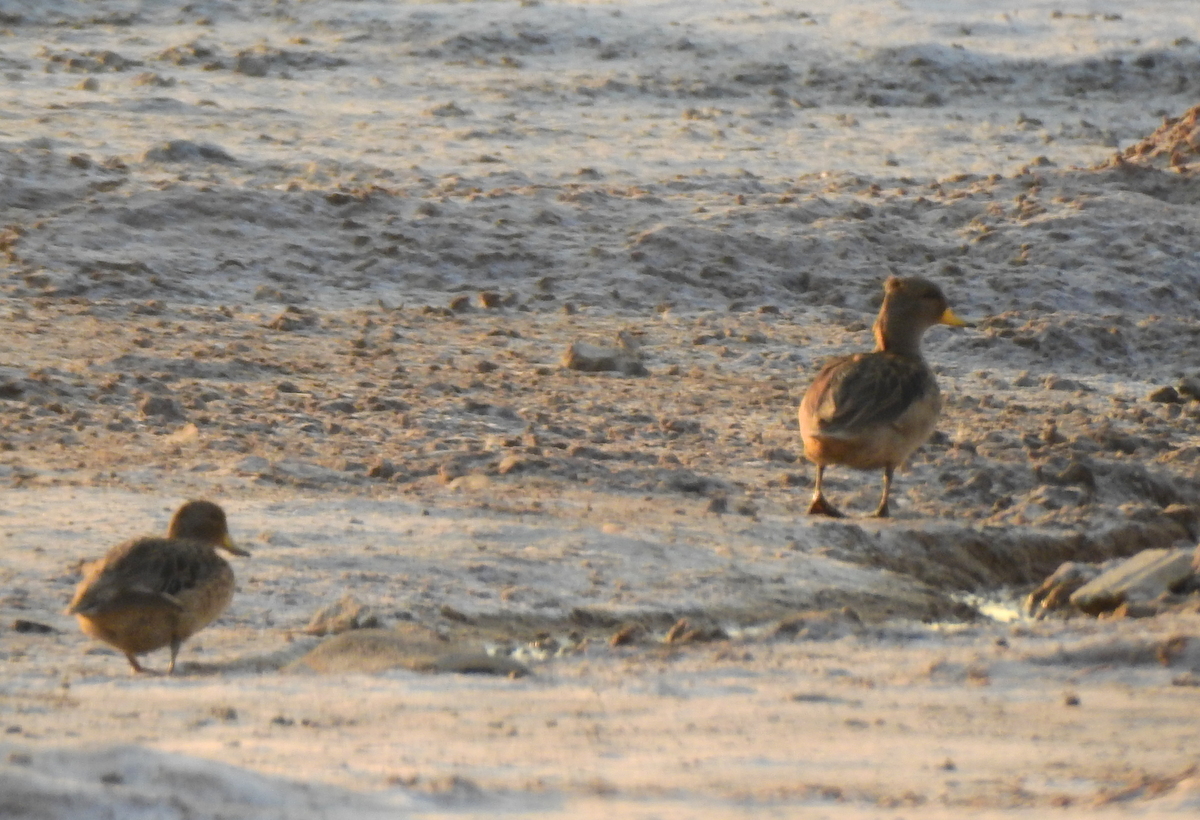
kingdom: Animalia
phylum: Chordata
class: Aves
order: Anseriformes
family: Anatidae
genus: Anas
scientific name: Anas flavirostris
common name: Yellow-billed teal
